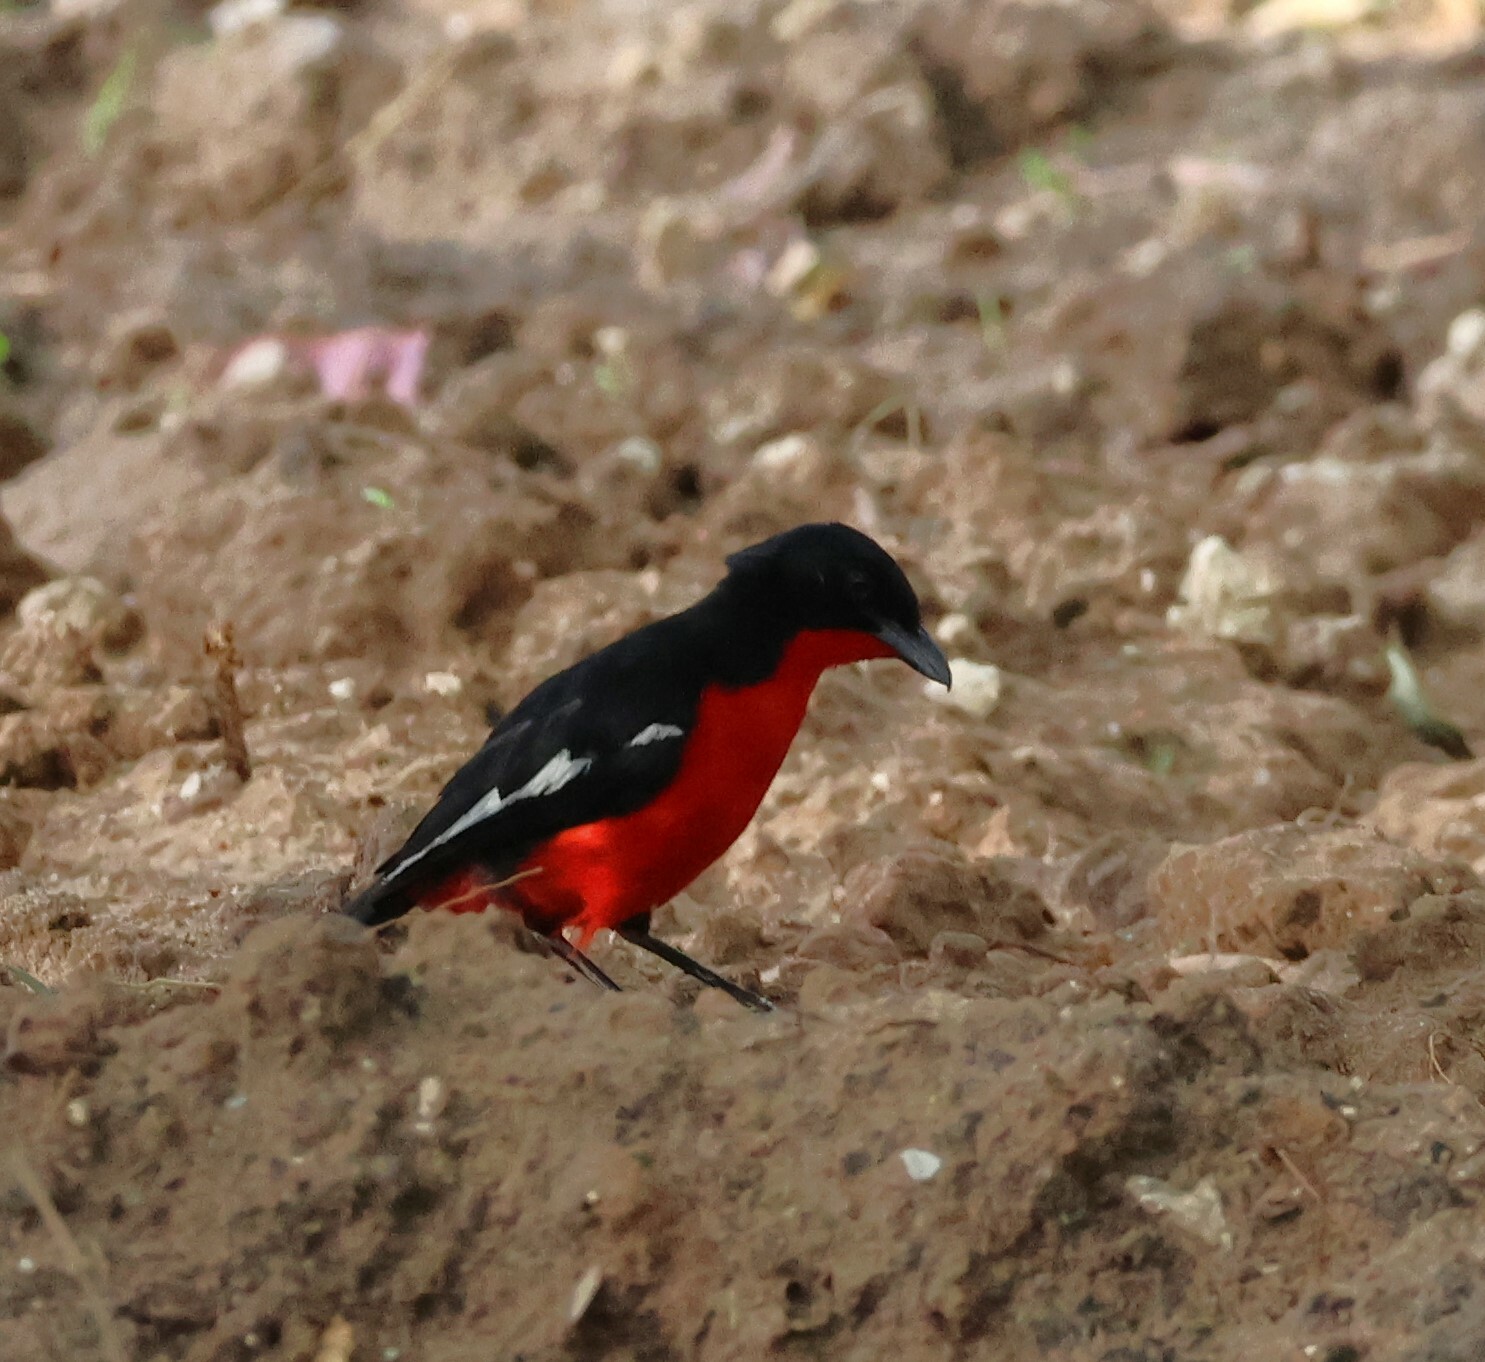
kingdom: Animalia
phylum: Chordata
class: Aves
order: Passeriformes
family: Malaconotidae
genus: Laniarius
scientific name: Laniarius atrococcineus
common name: Crimson-breasted shrike
